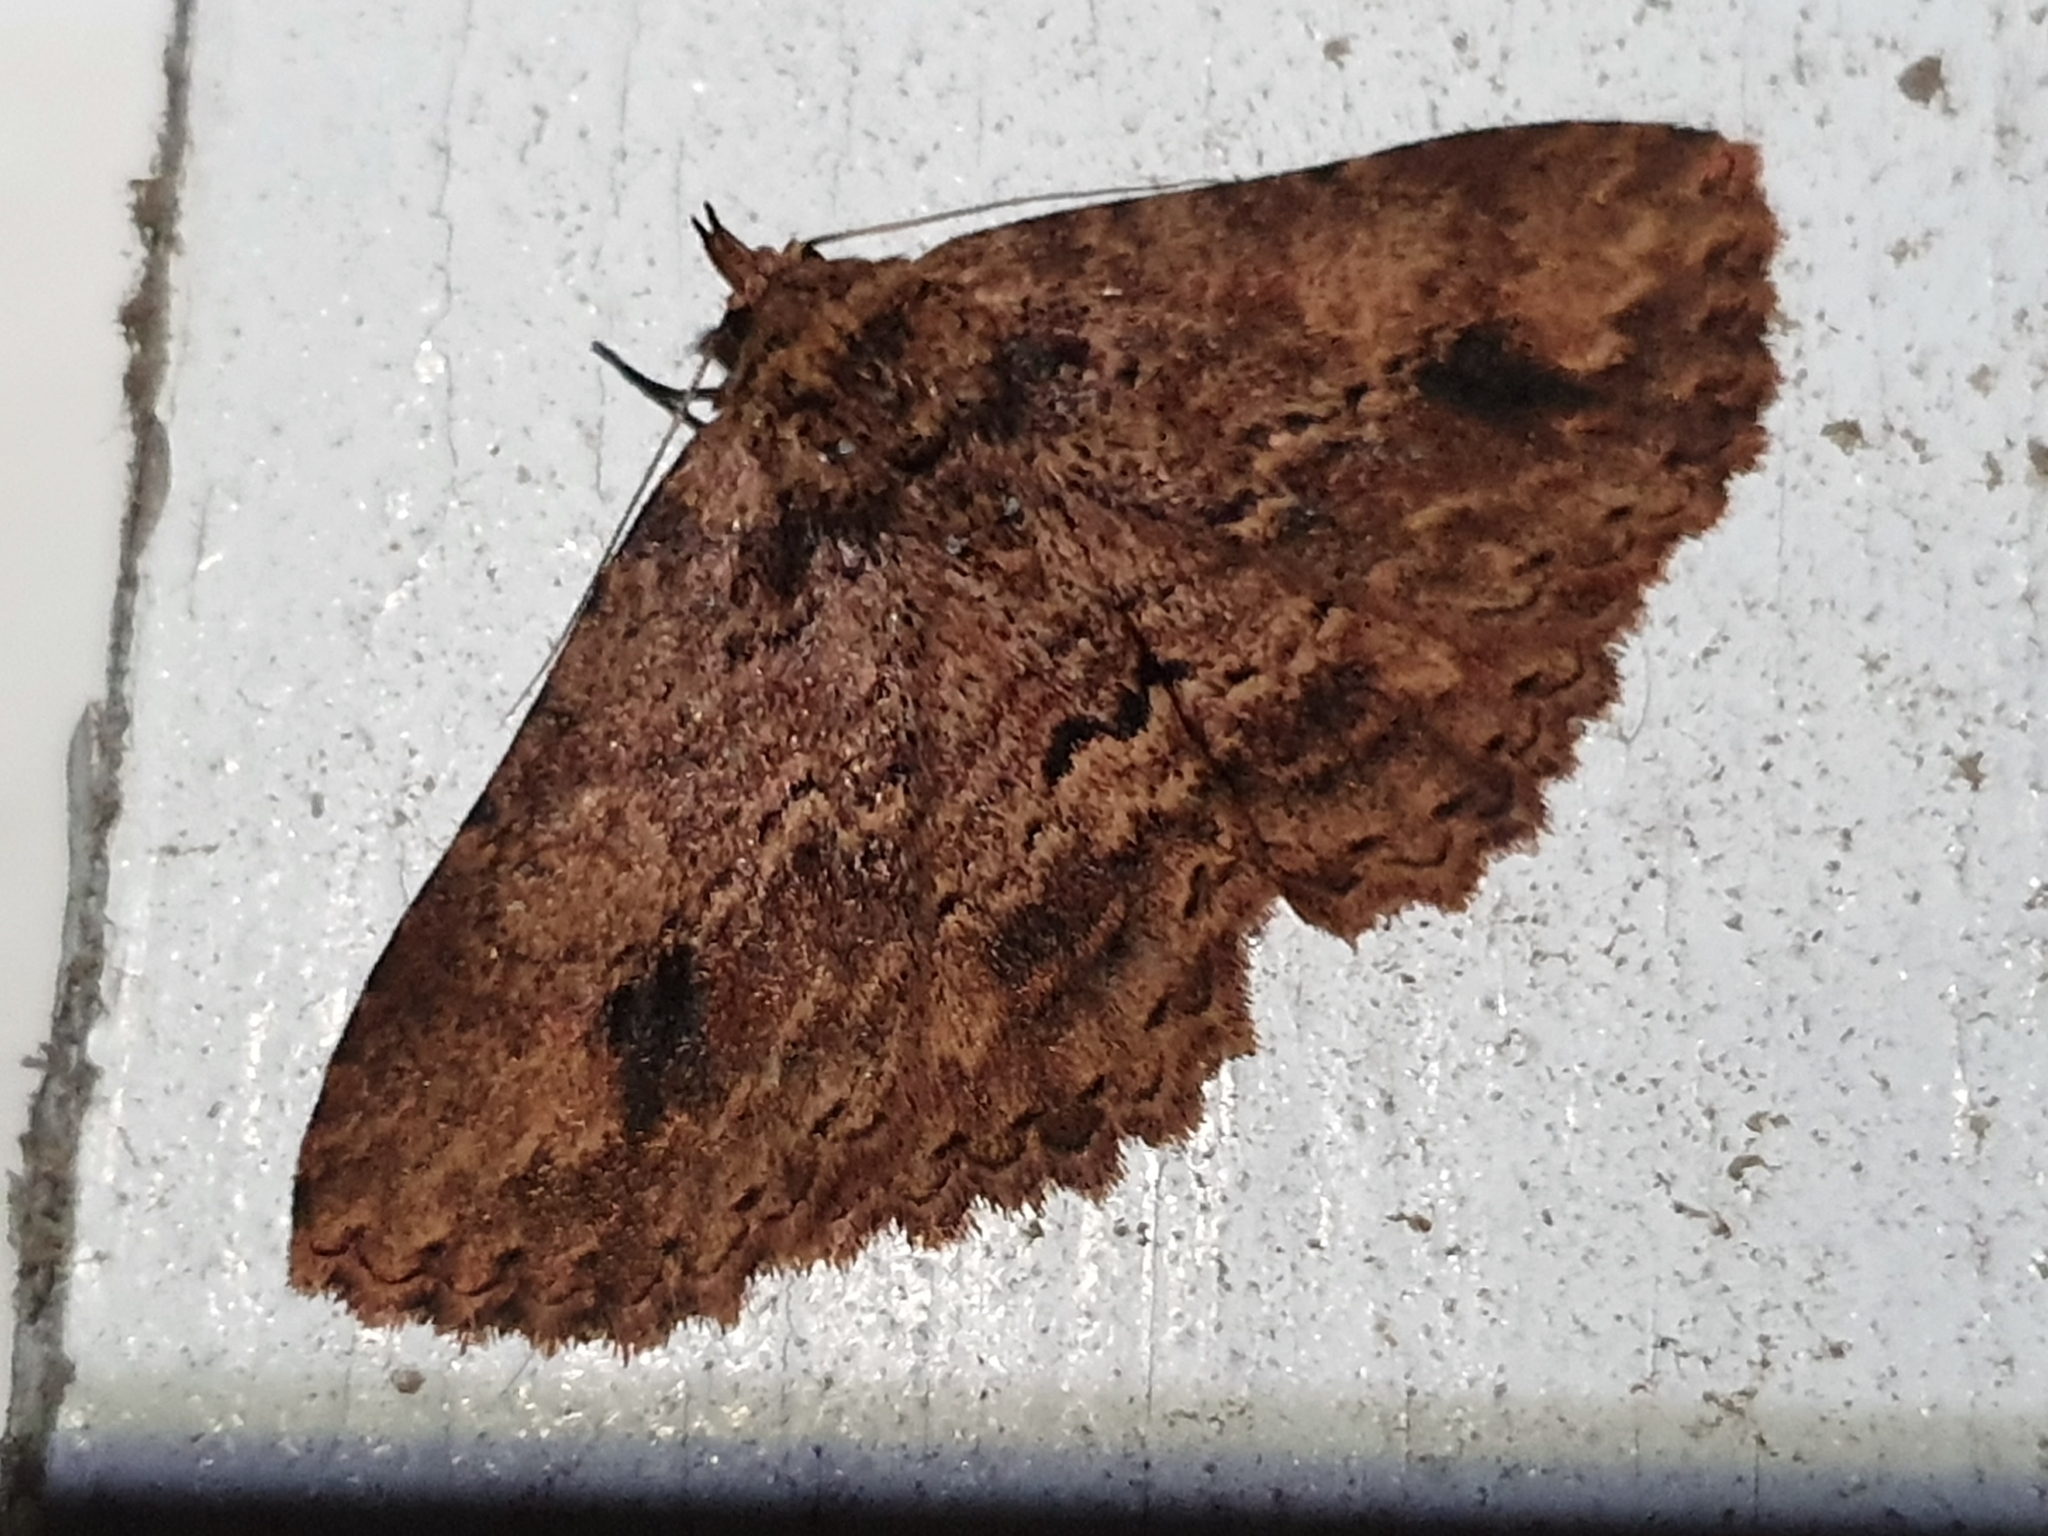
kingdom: Animalia
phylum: Arthropoda
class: Insecta
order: Lepidoptera
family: Erebidae
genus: Artigisa
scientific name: Artigisa melanephele
